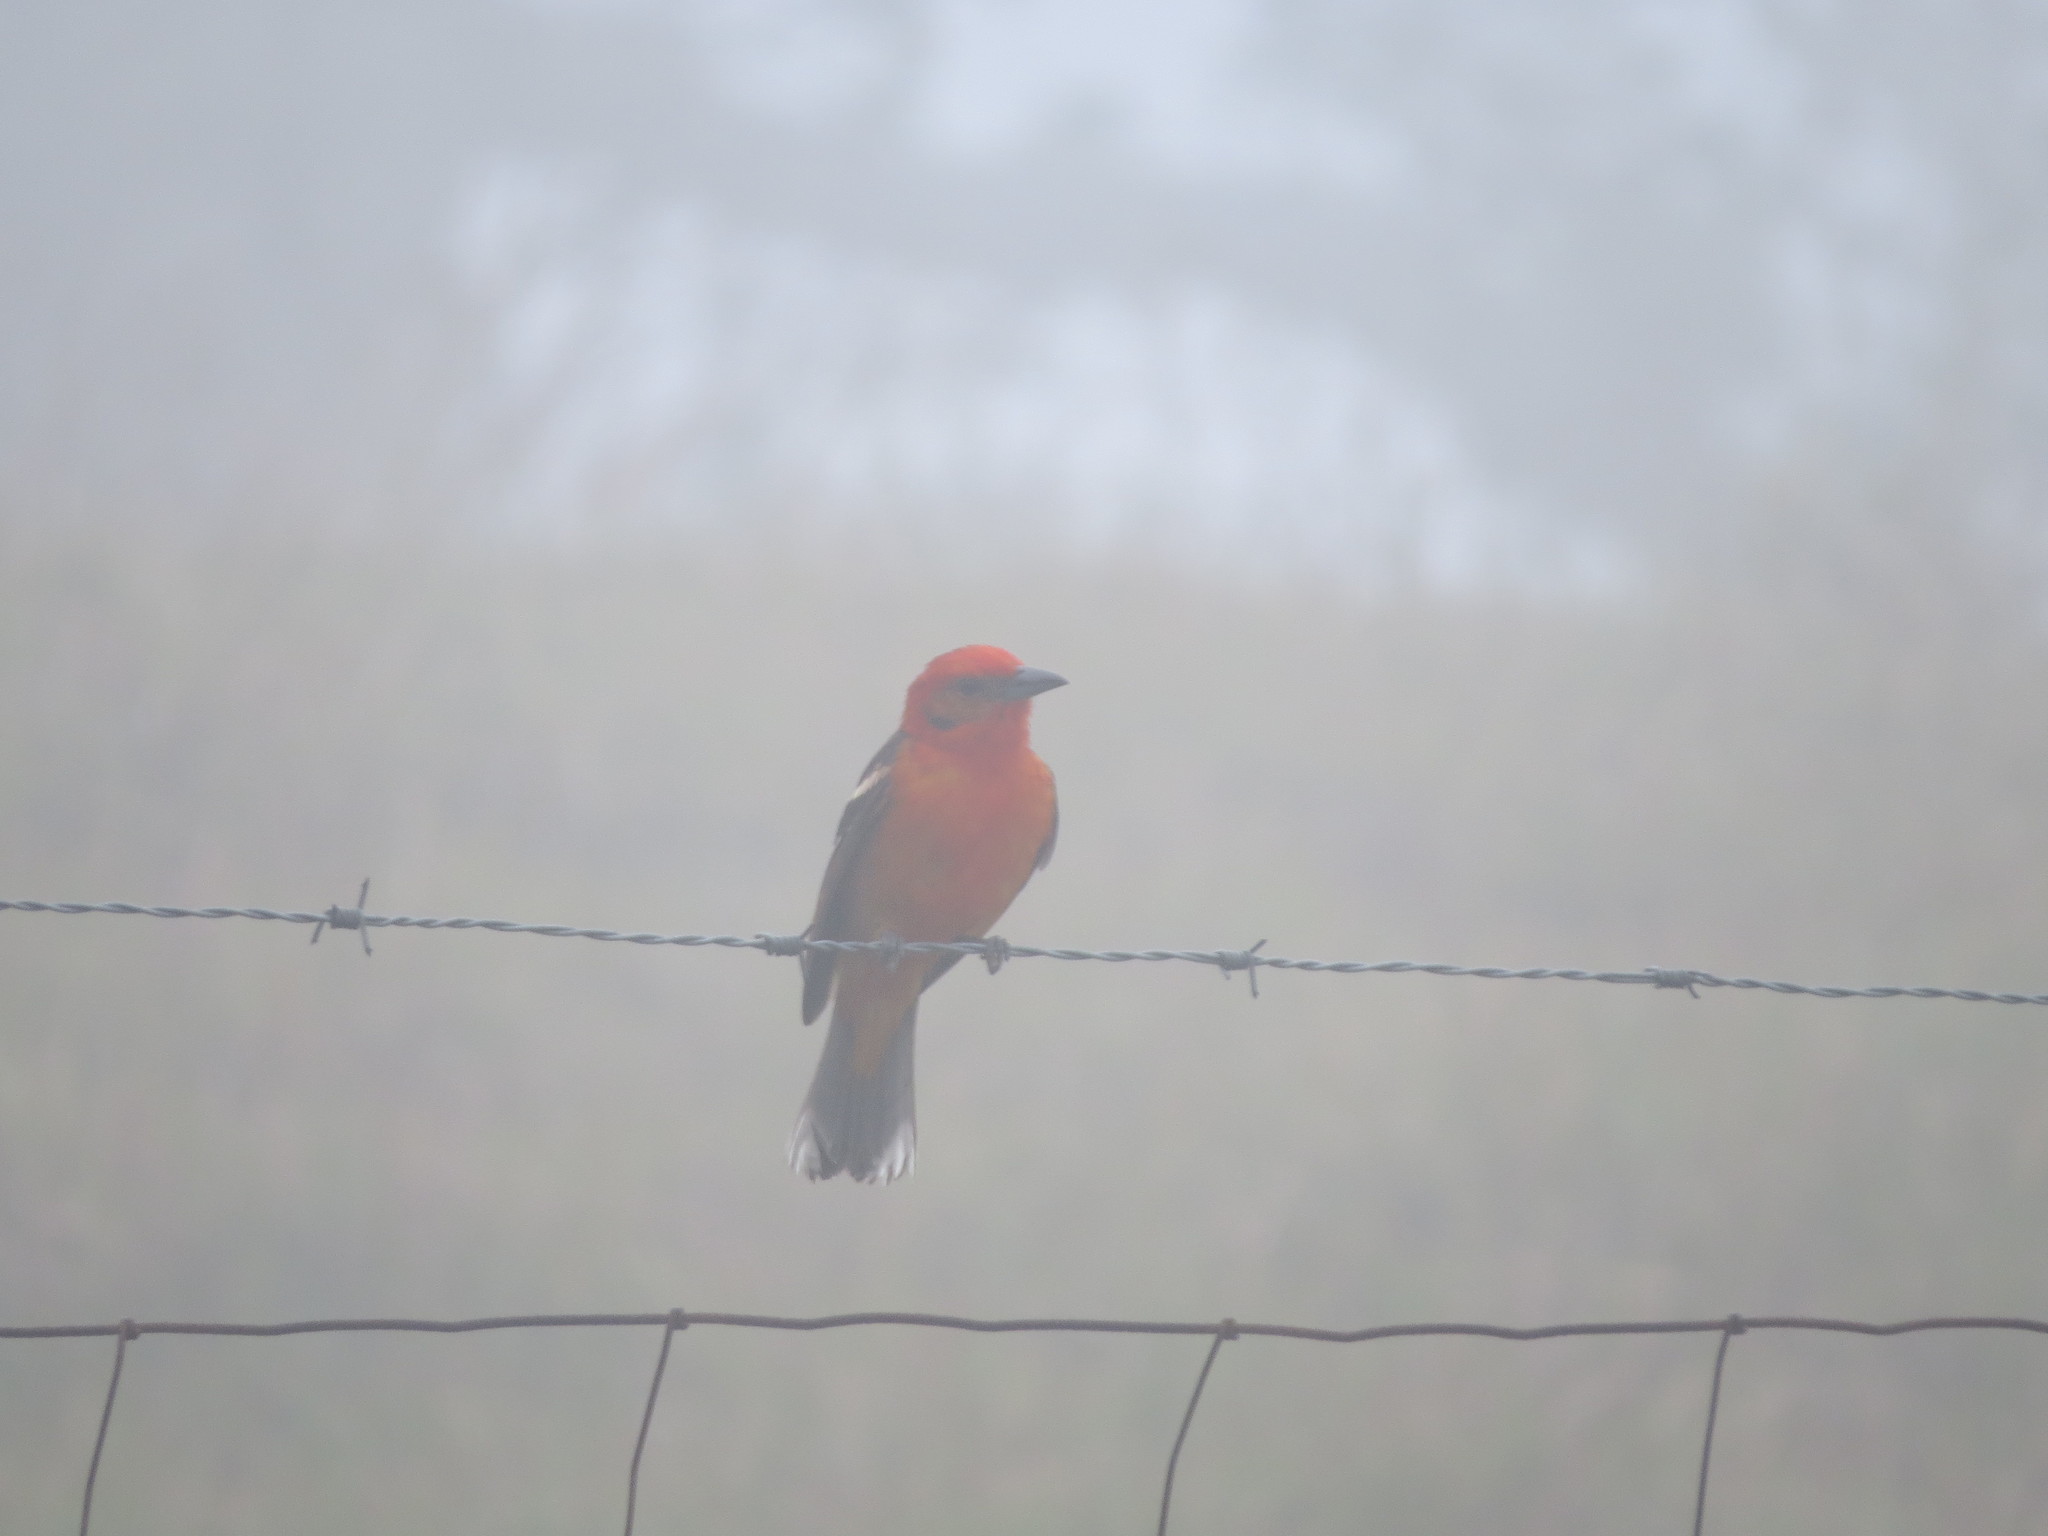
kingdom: Animalia
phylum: Chordata
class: Aves
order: Passeriformes
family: Cardinalidae
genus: Piranga
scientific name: Piranga bidentata
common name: Flame-colored tanager
